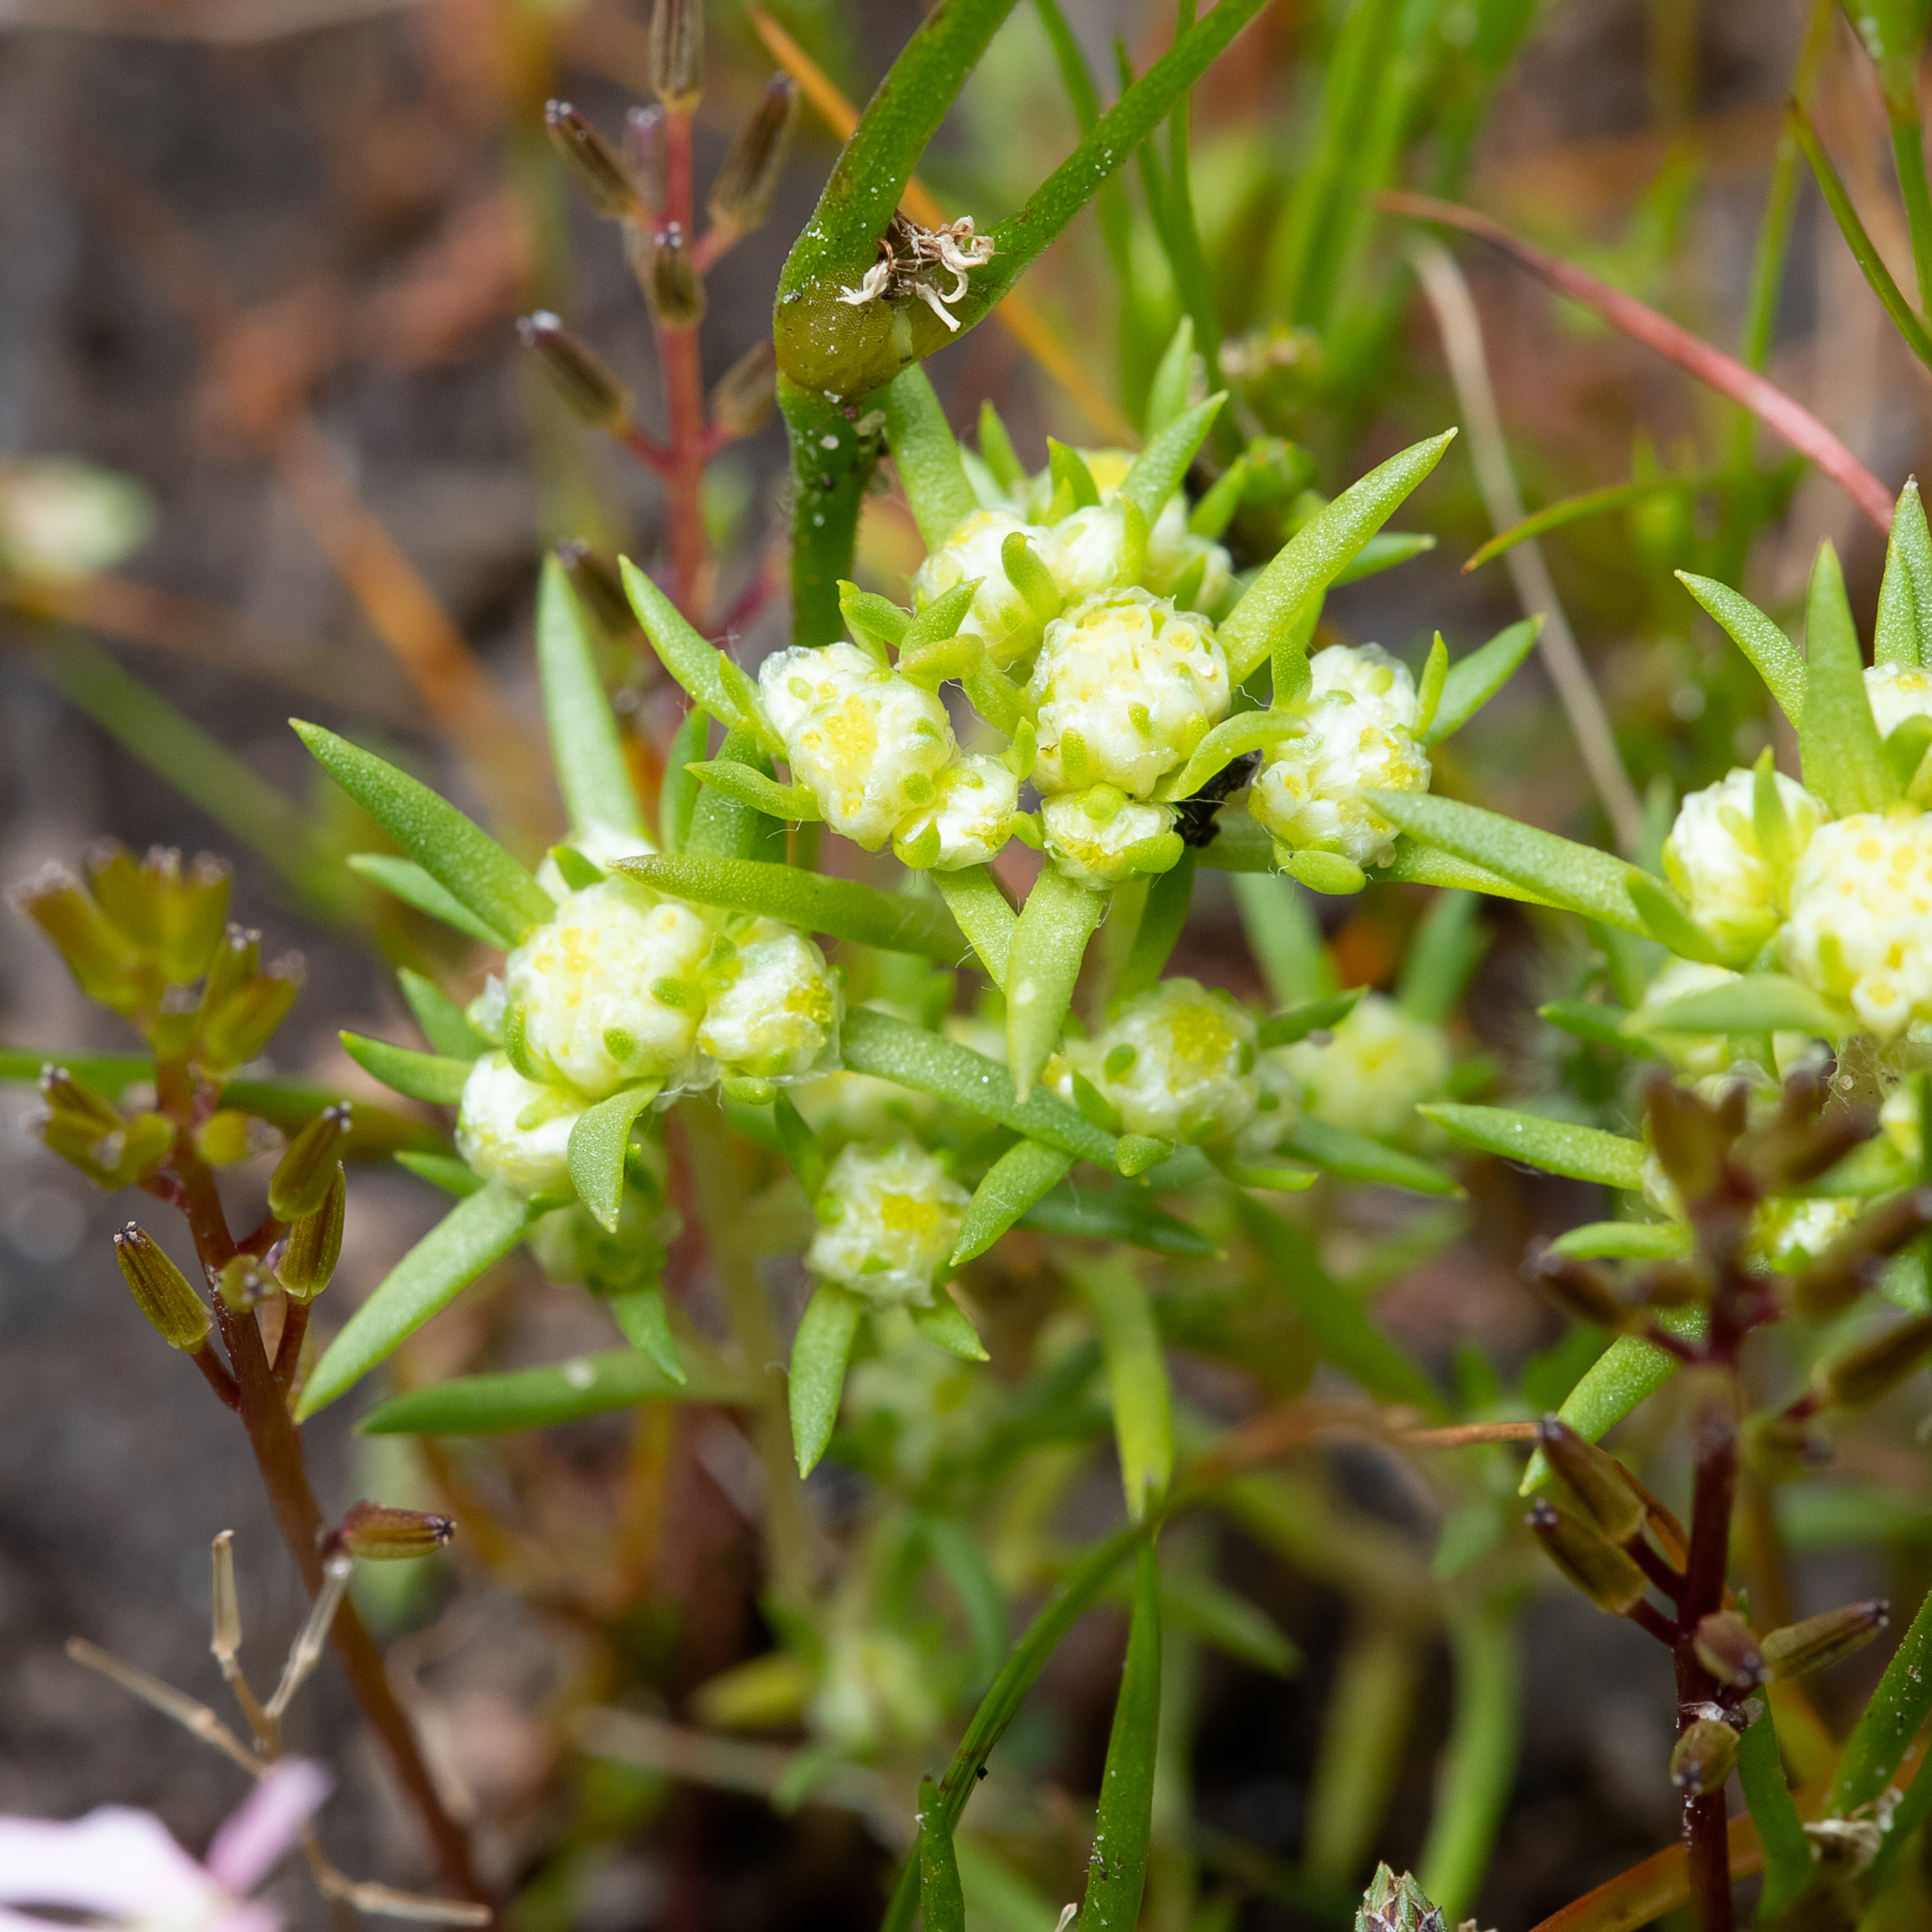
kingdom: Plantae
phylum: Tracheophyta
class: Magnoliopsida
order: Asterales
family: Asteraceae
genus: Siloxerus
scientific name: Siloxerus multiflorus
